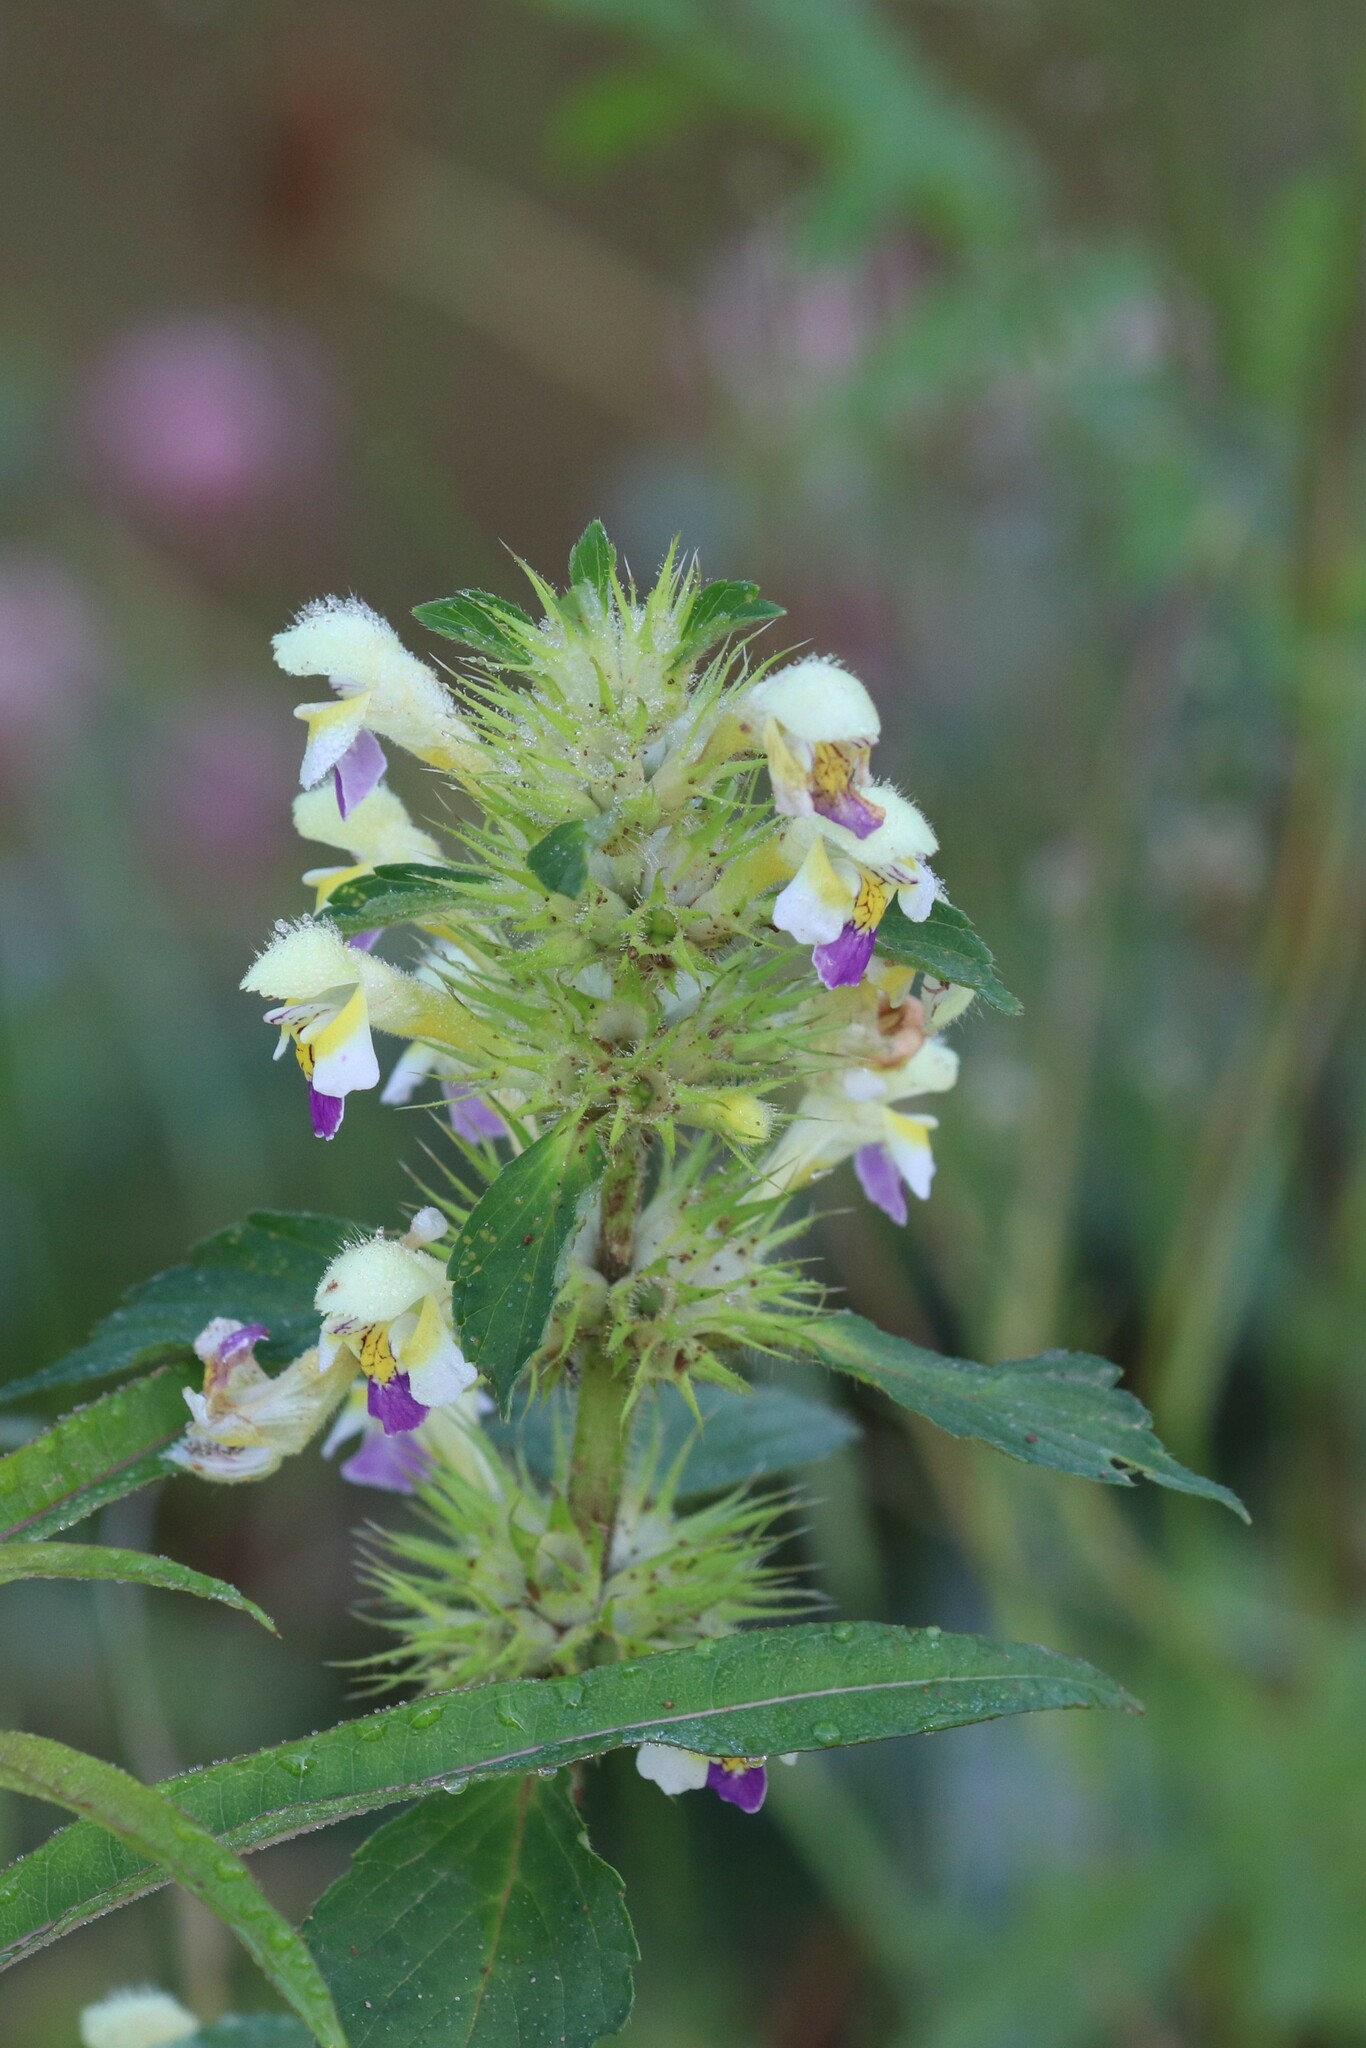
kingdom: Plantae
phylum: Tracheophyta
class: Magnoliopsida
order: Lamiales
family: Lamiaceae
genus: Galeopsis
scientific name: Galeopsis speciosa
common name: Large-flowered hemp-nettle
